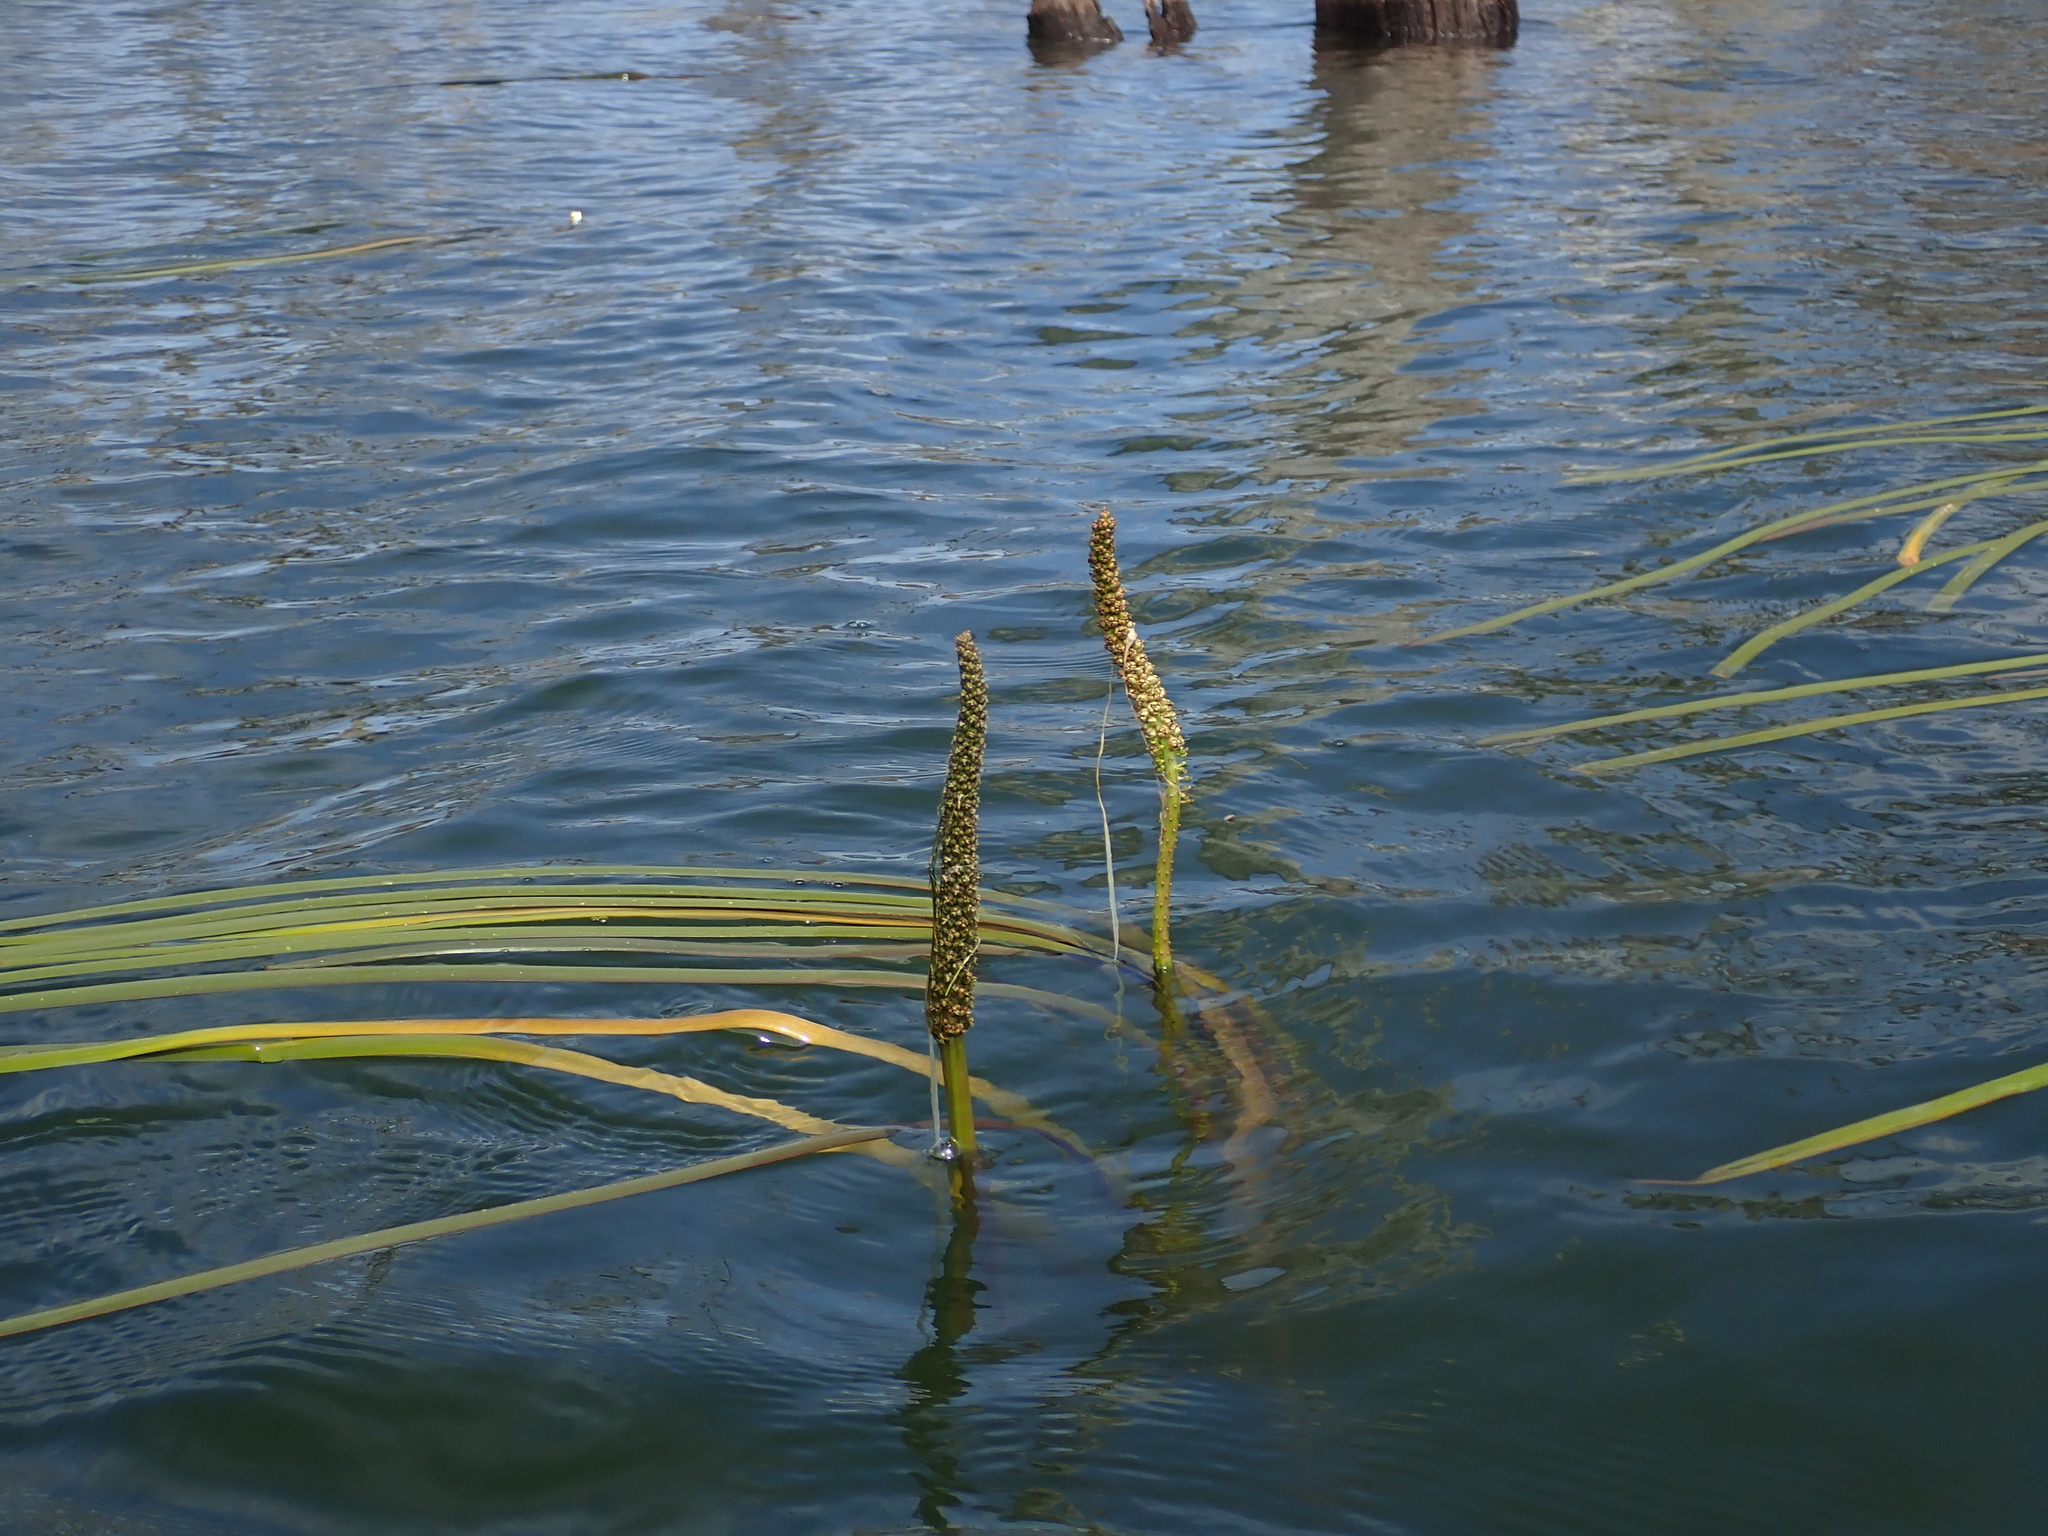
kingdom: Plantae
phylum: Tracheophyta
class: Liliopsida
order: Alismatales
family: Juncaginaceae
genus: Cycnogeton
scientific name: Cycnogeton procerum
